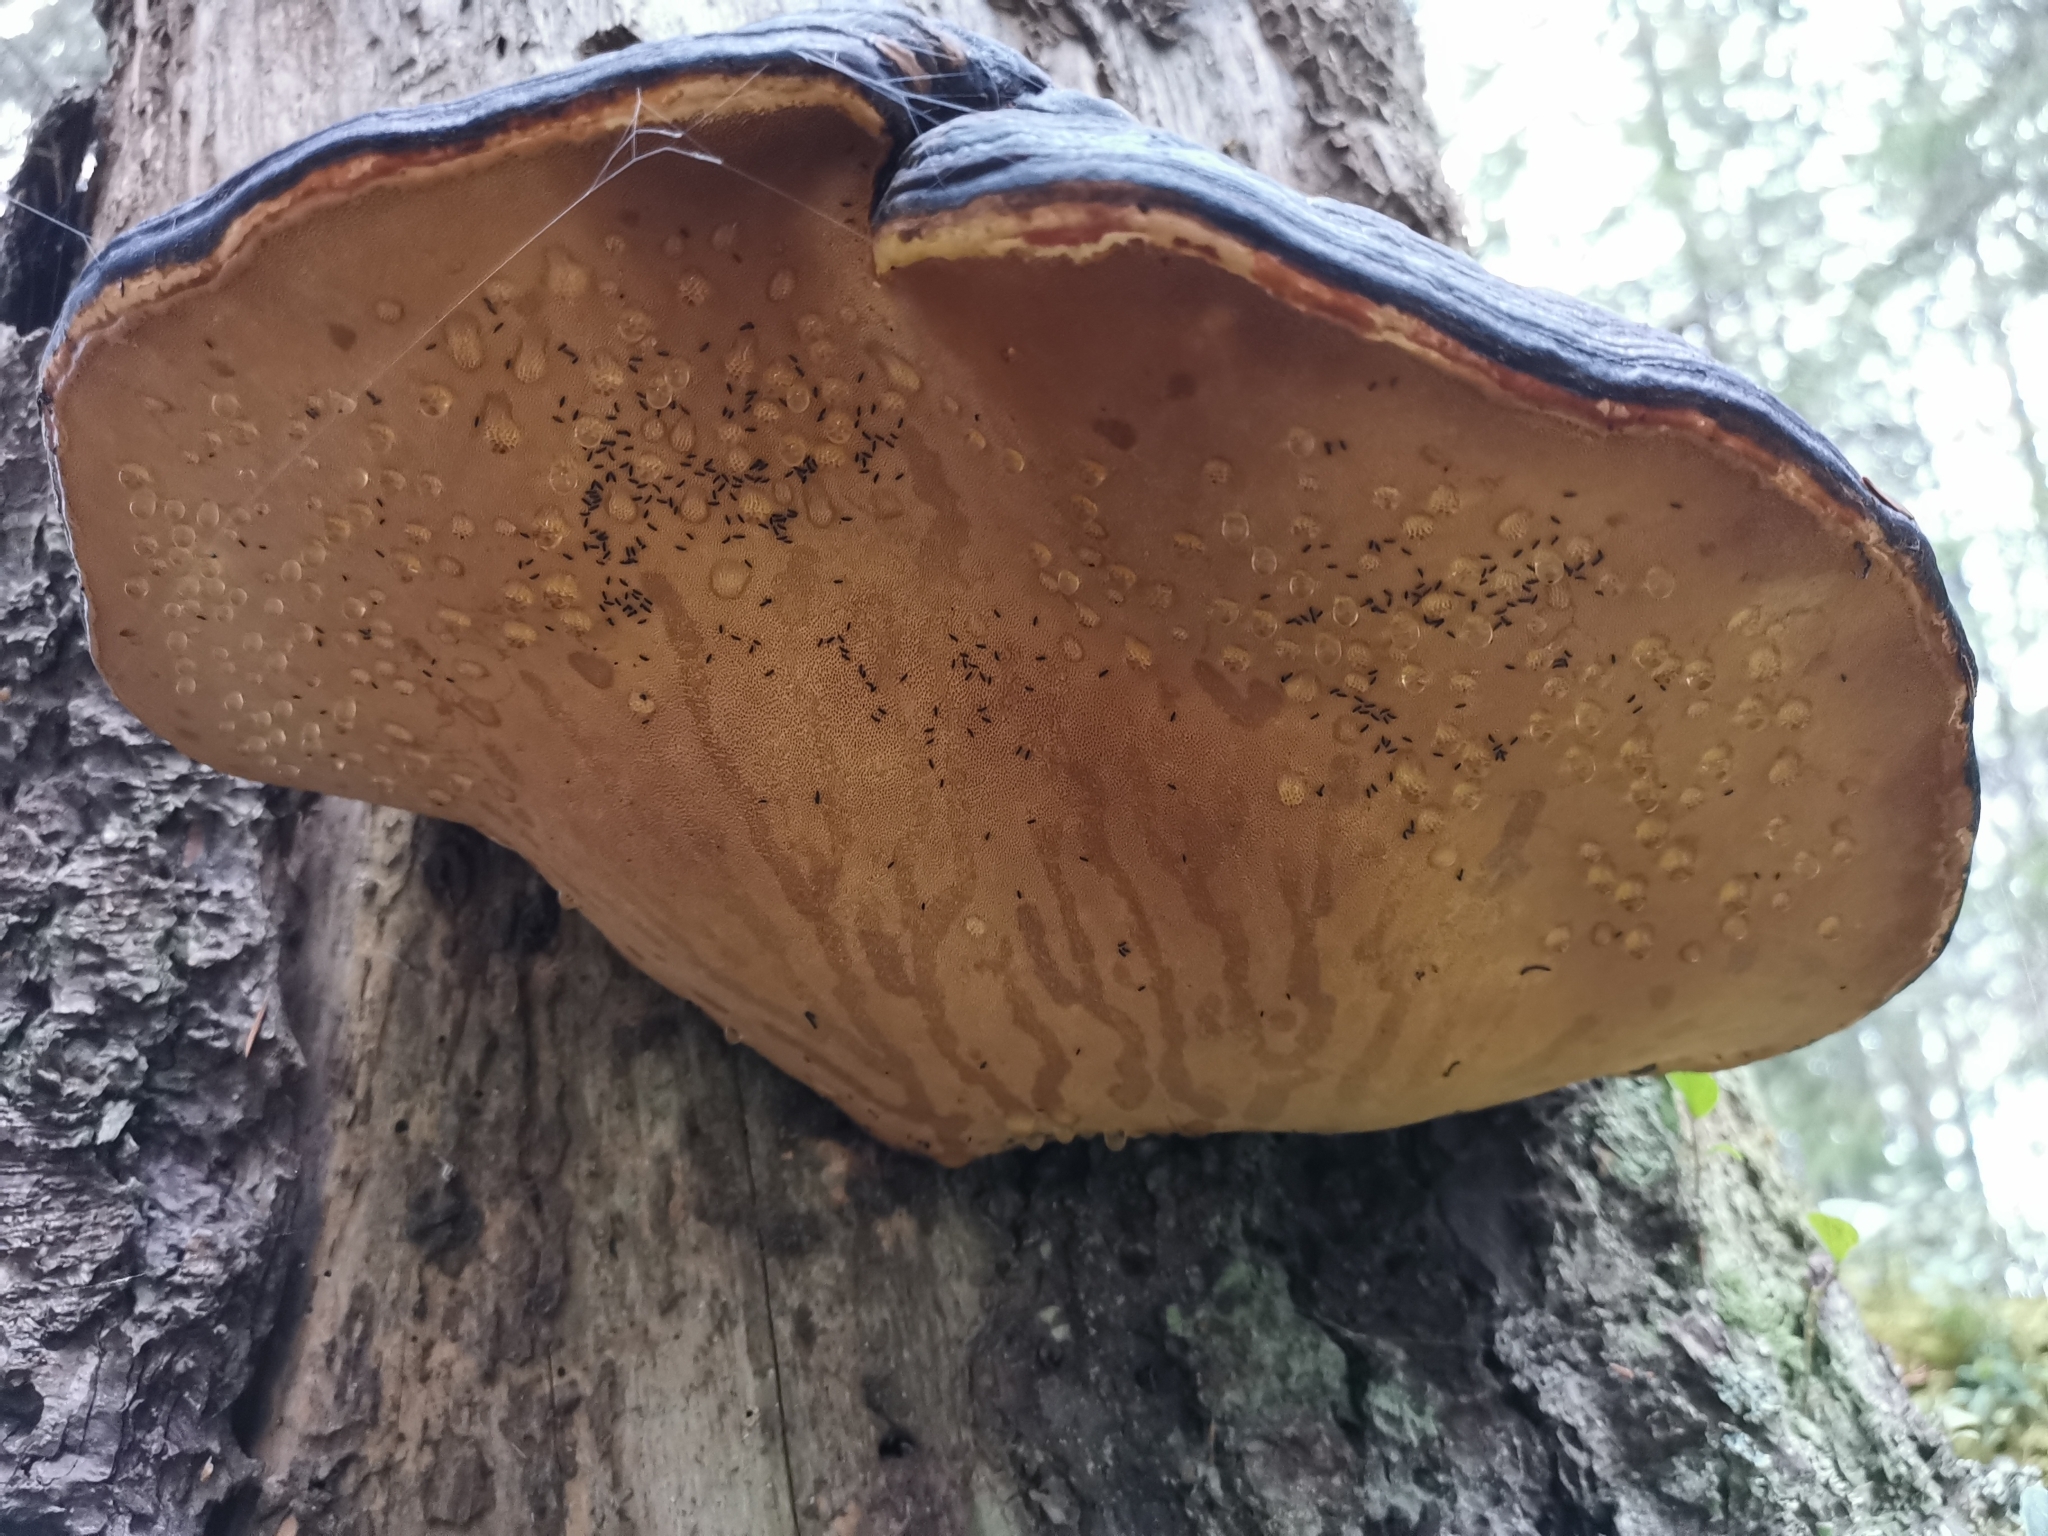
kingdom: Fungi
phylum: Basidiomycota
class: Agaricomycetes
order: Polyporales
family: Fomitopsidaceae
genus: Fomitopsis
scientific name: Fomitopsis pinicola
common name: Red-belted bracket
